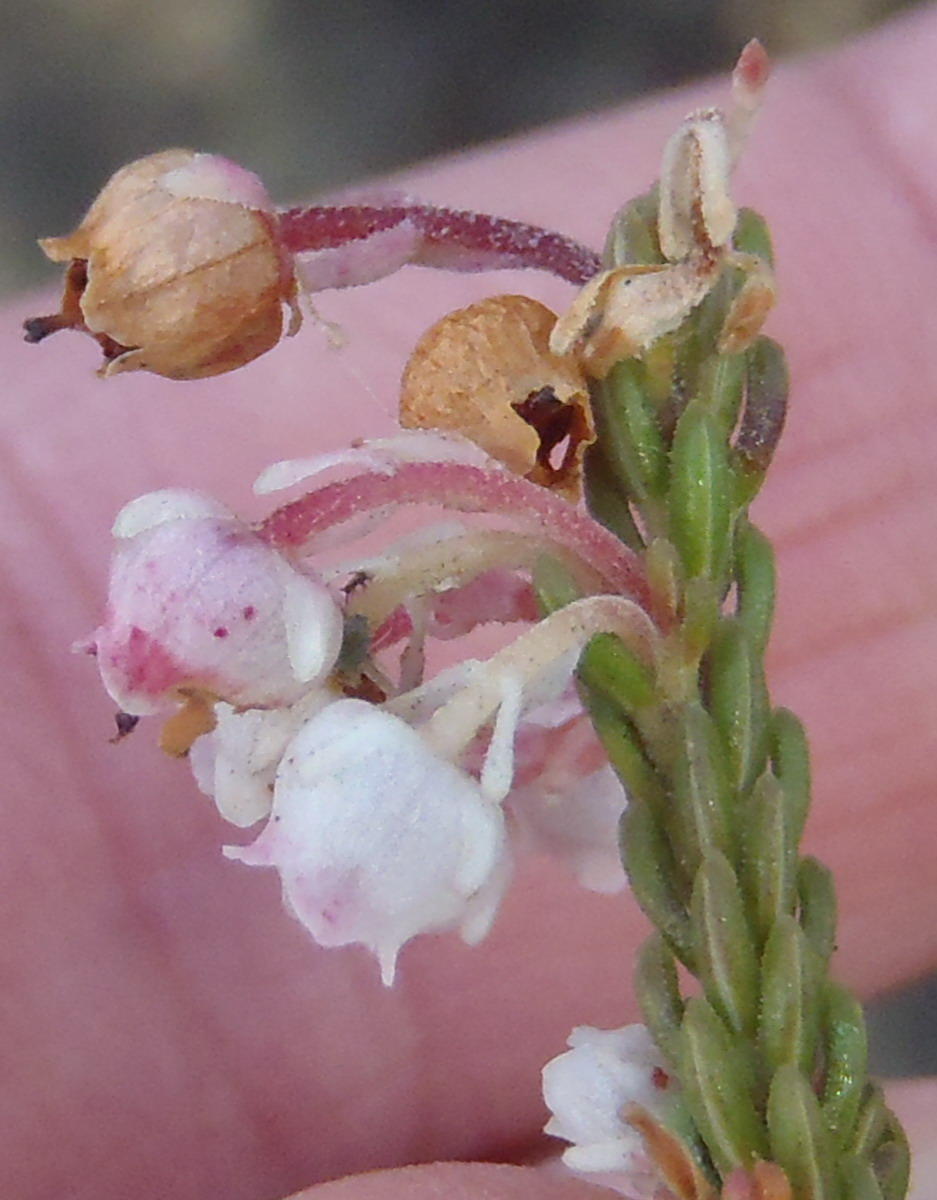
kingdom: Plantae
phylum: Tracheophyta
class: Magnoliopsida
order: Ericales
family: Ericaceae
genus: Erica
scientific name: Erica spectabilis
